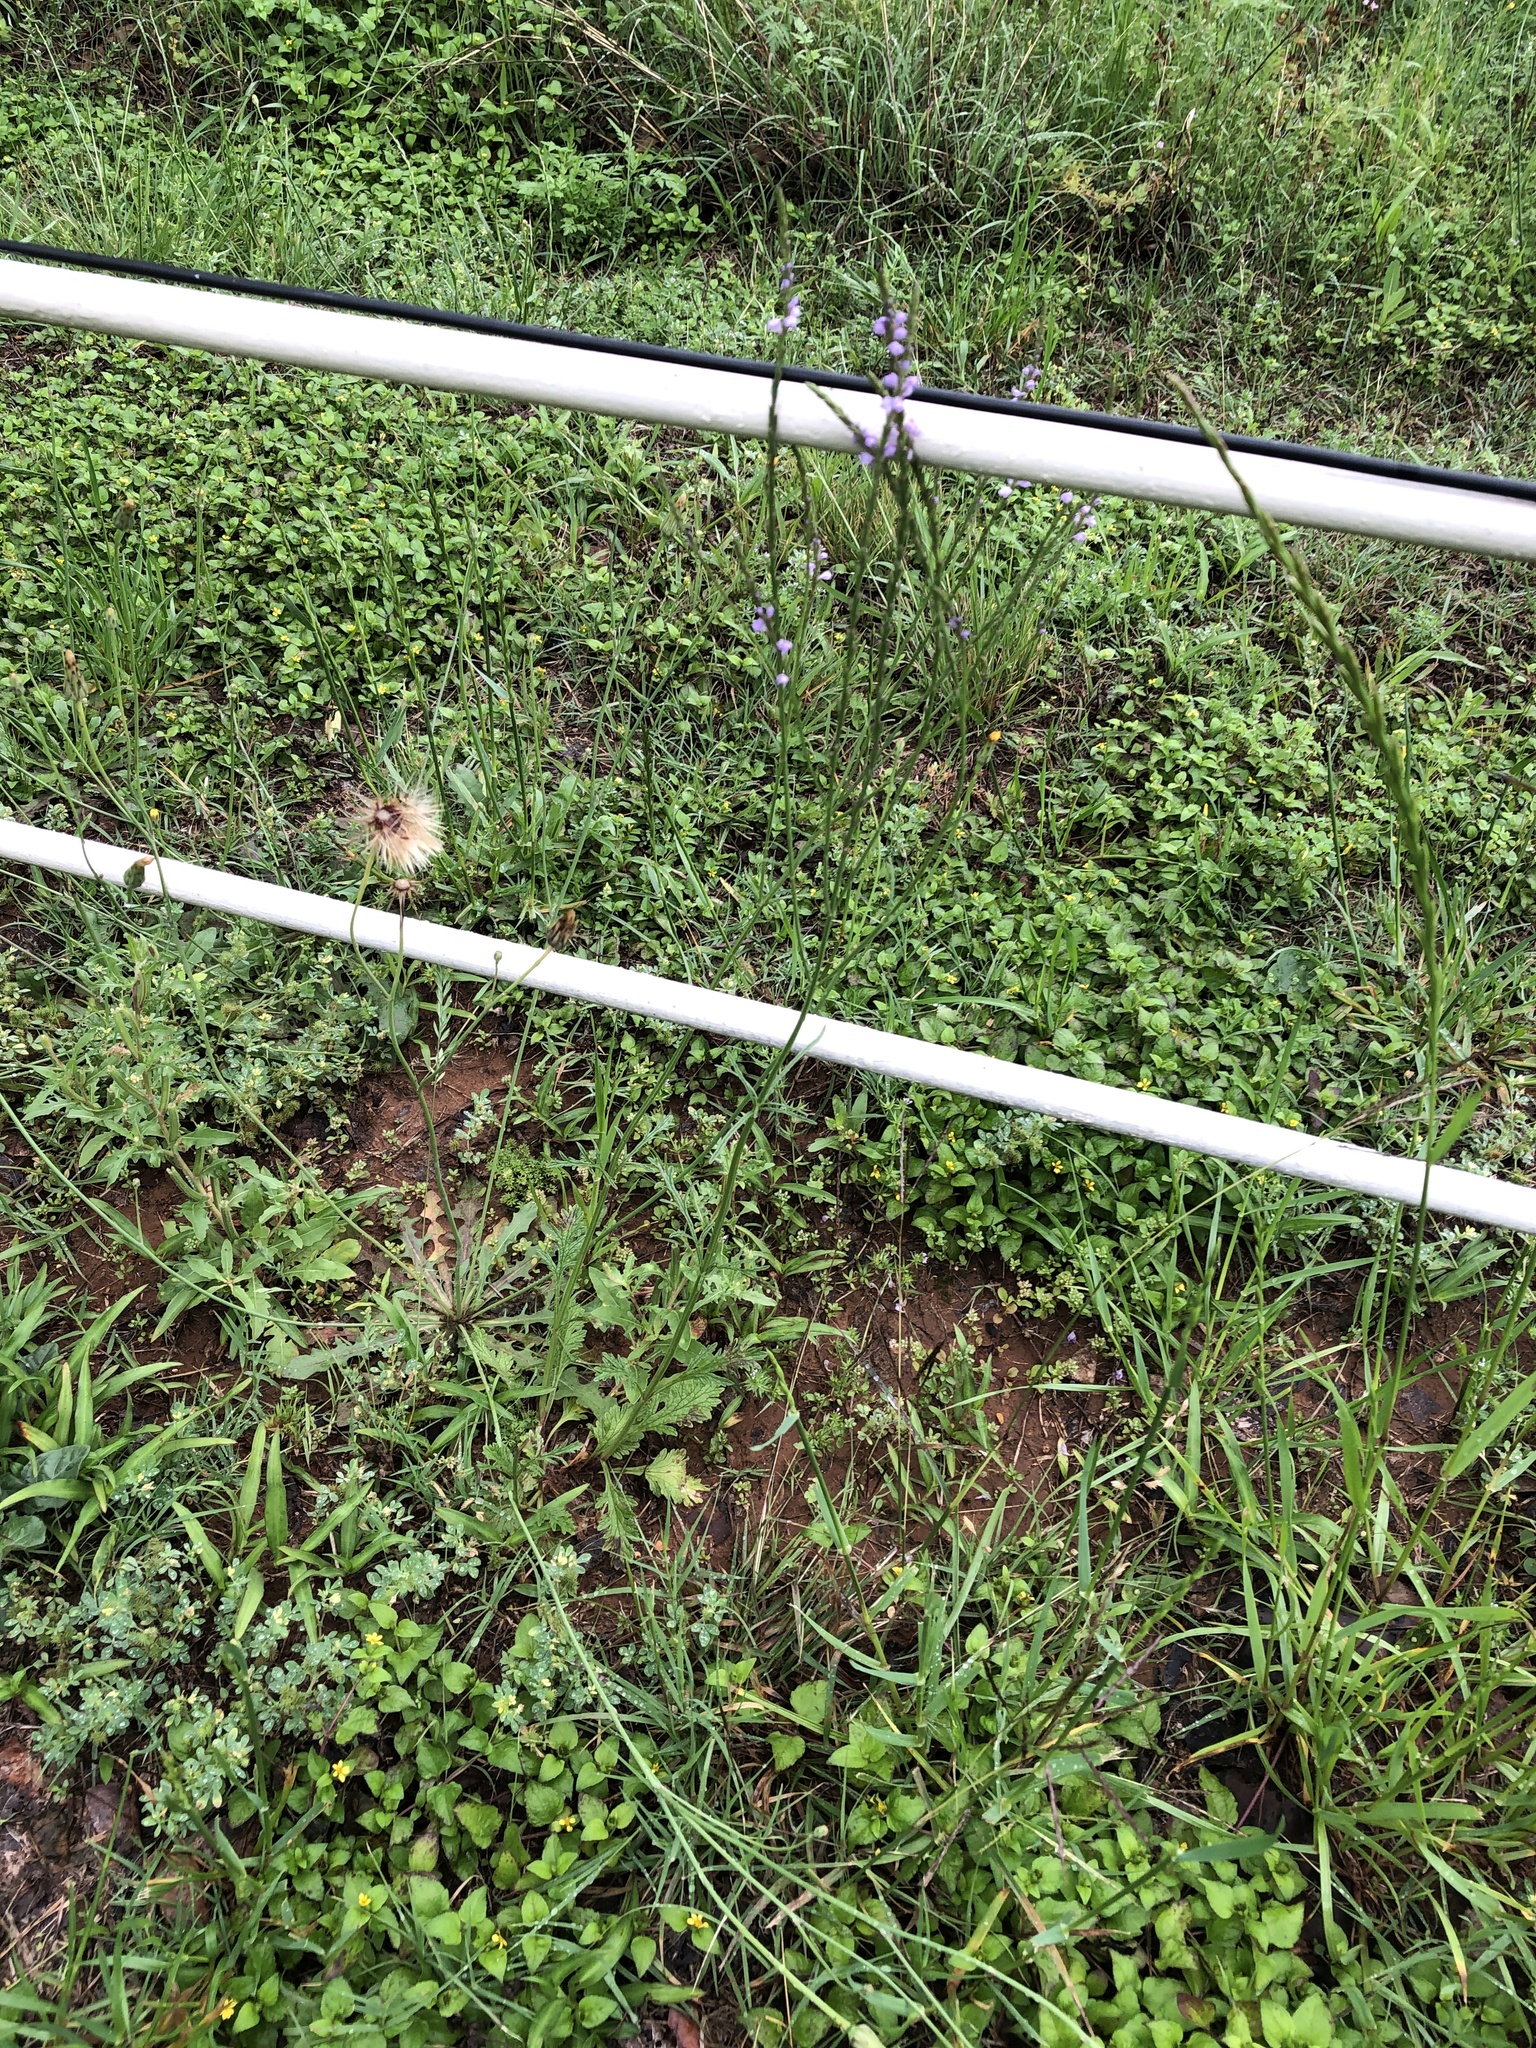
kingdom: Plantae
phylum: Tracheophyta
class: Magnoliopsida
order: Lamiales
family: Verbenaceae
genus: Verbena
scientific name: Verbena halei
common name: Texas vervain
